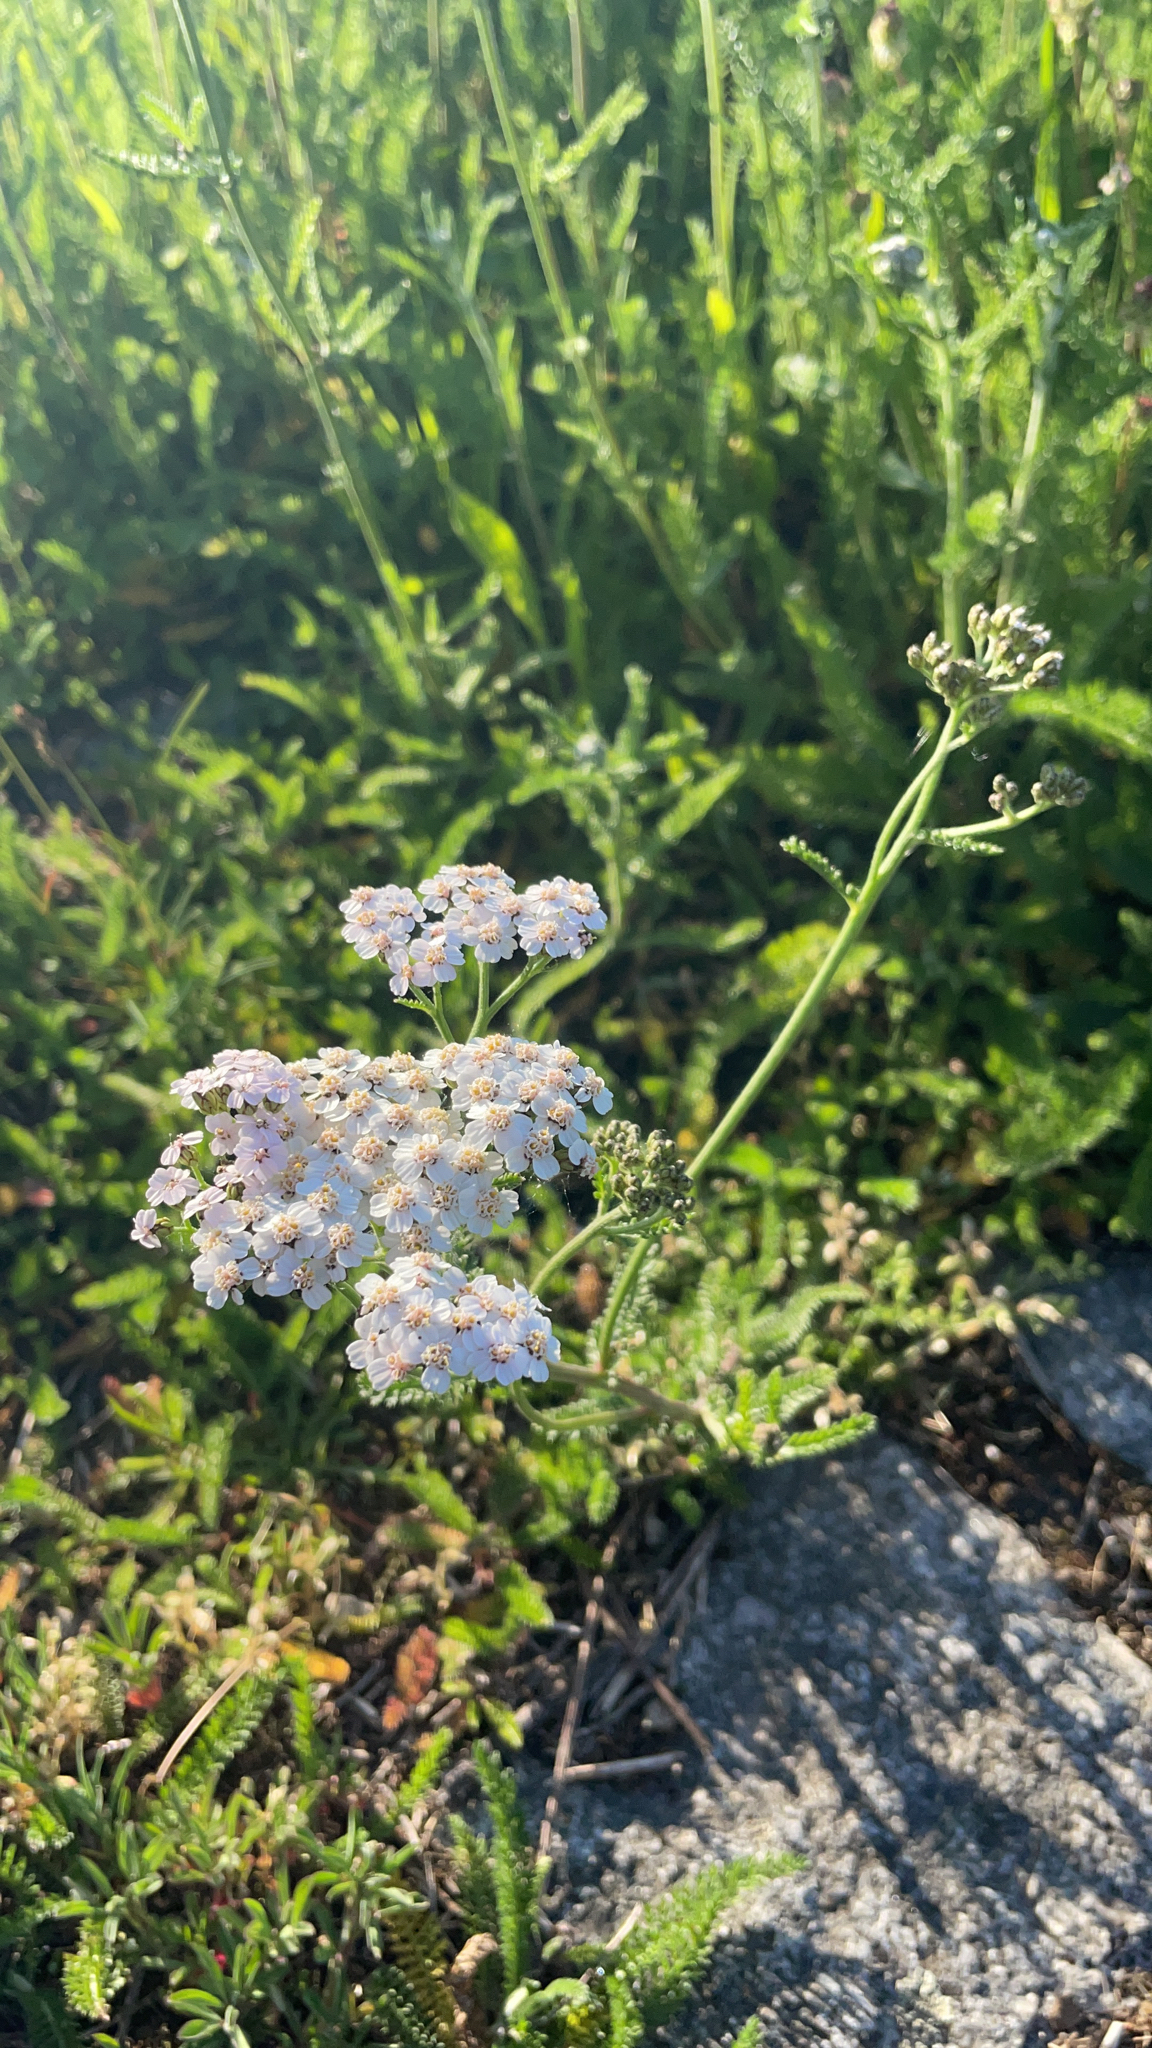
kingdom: Plantae
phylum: Tracheophyta
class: Magnoliopsida
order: Asterales
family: Asteraceae
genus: Achillea
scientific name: Achillea millefolium
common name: Yarrow
